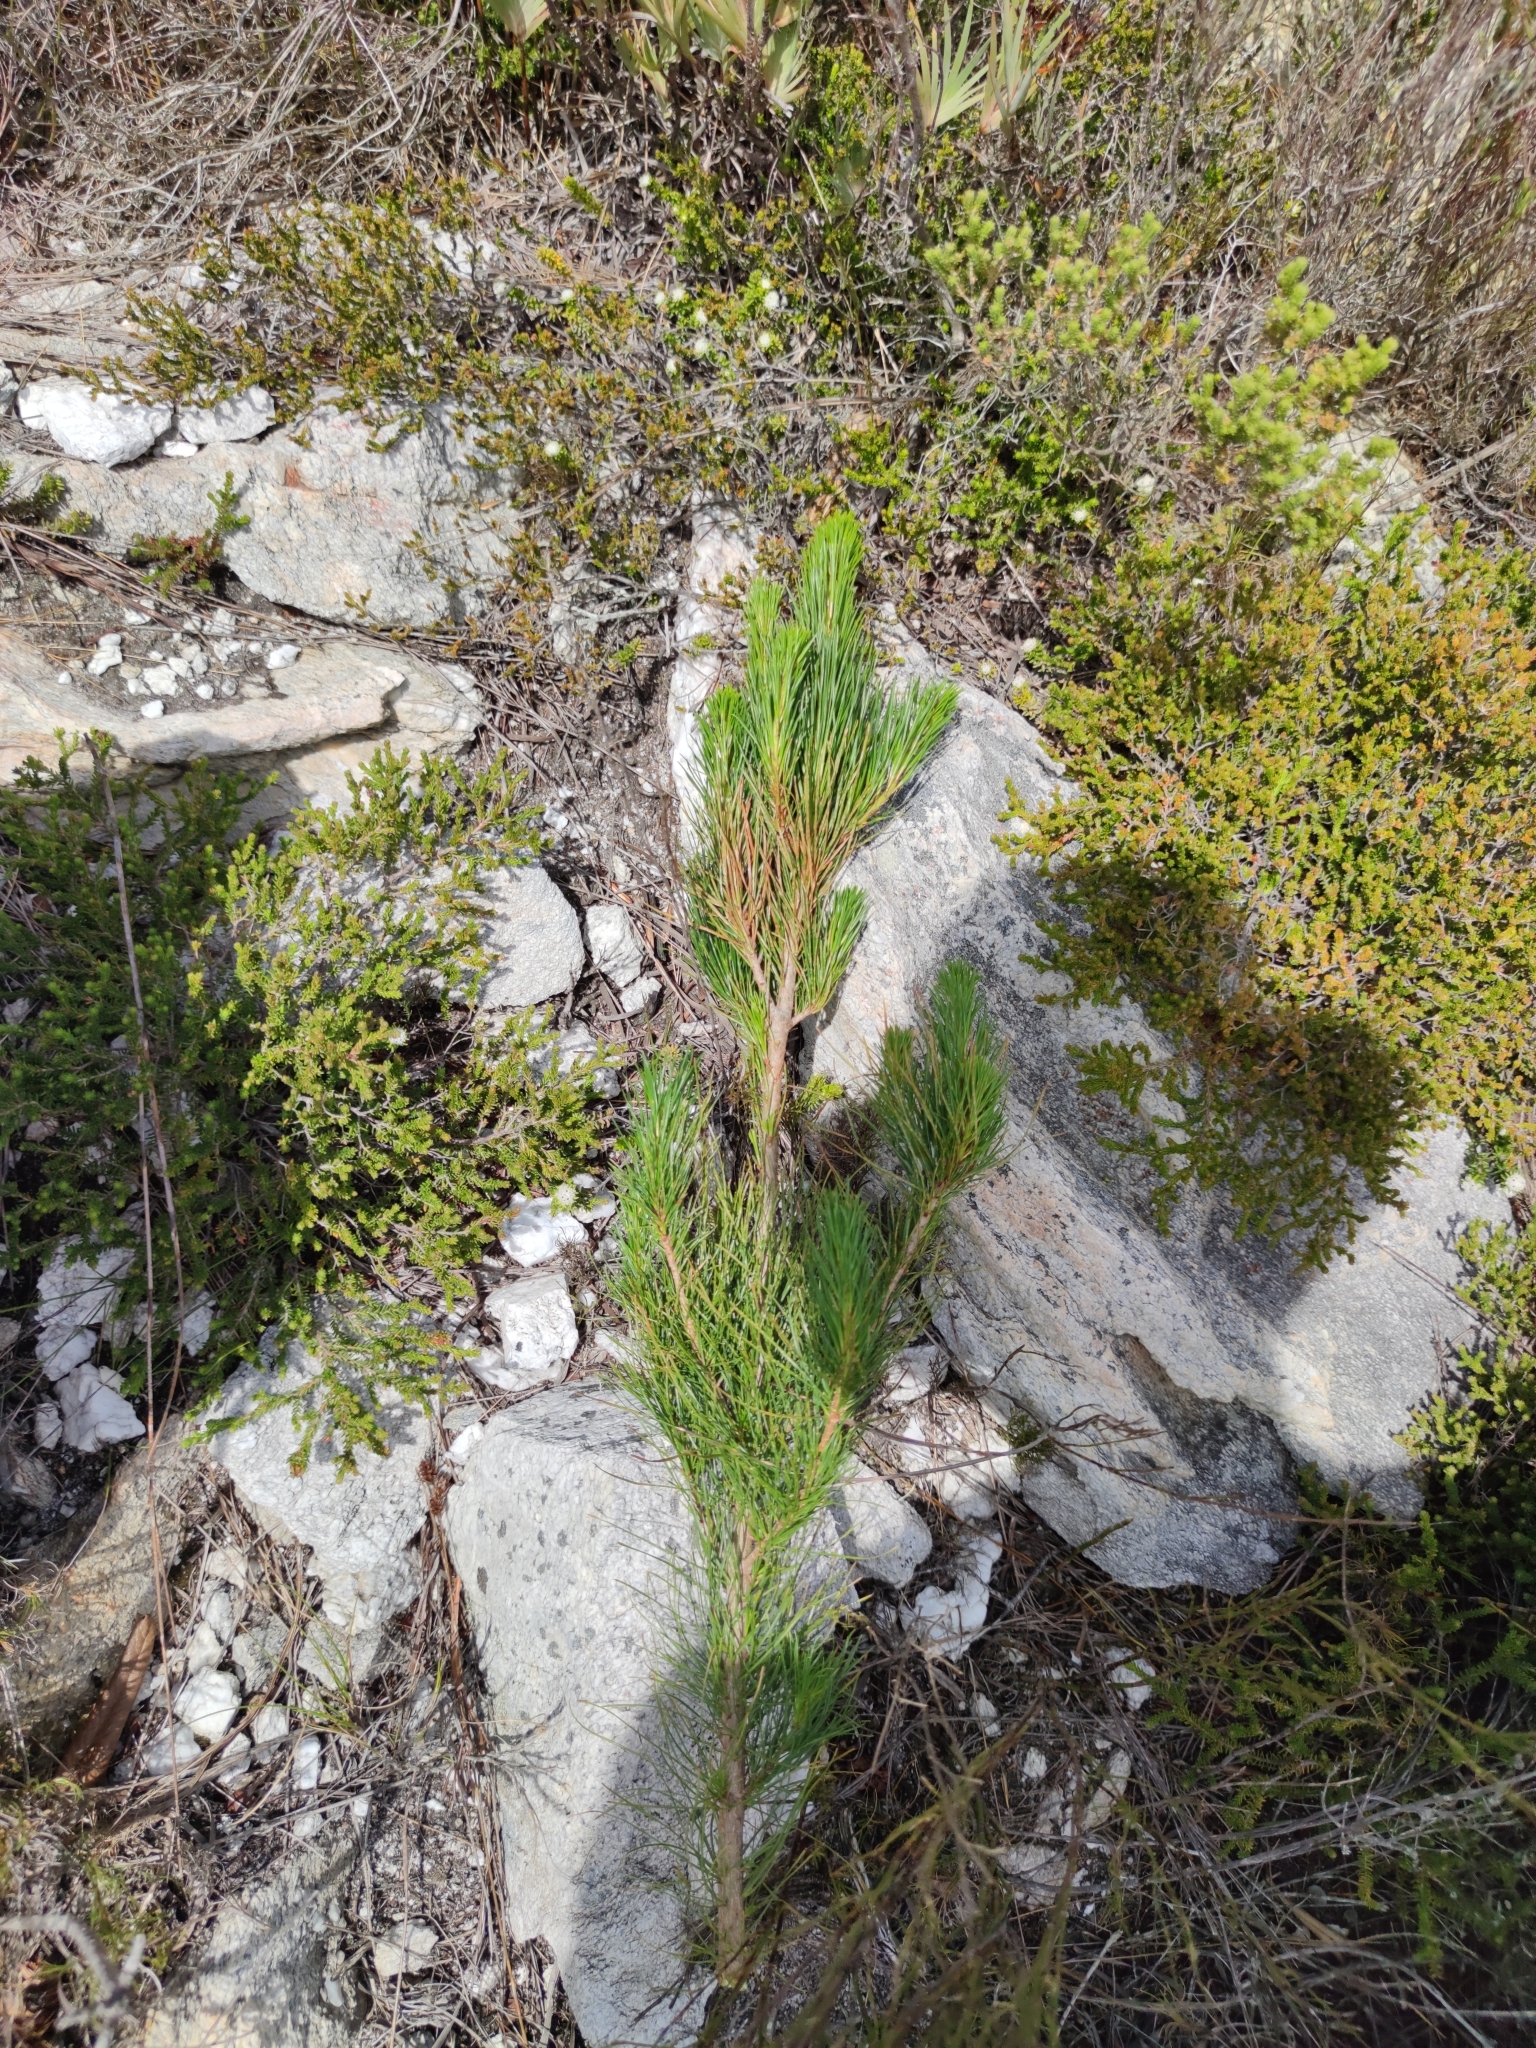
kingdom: Plantae
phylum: Tracheophyta
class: Pinopsida
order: Pinales
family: Pinaceae
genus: Pinus
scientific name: Pinus radiata
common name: Monterey pine
